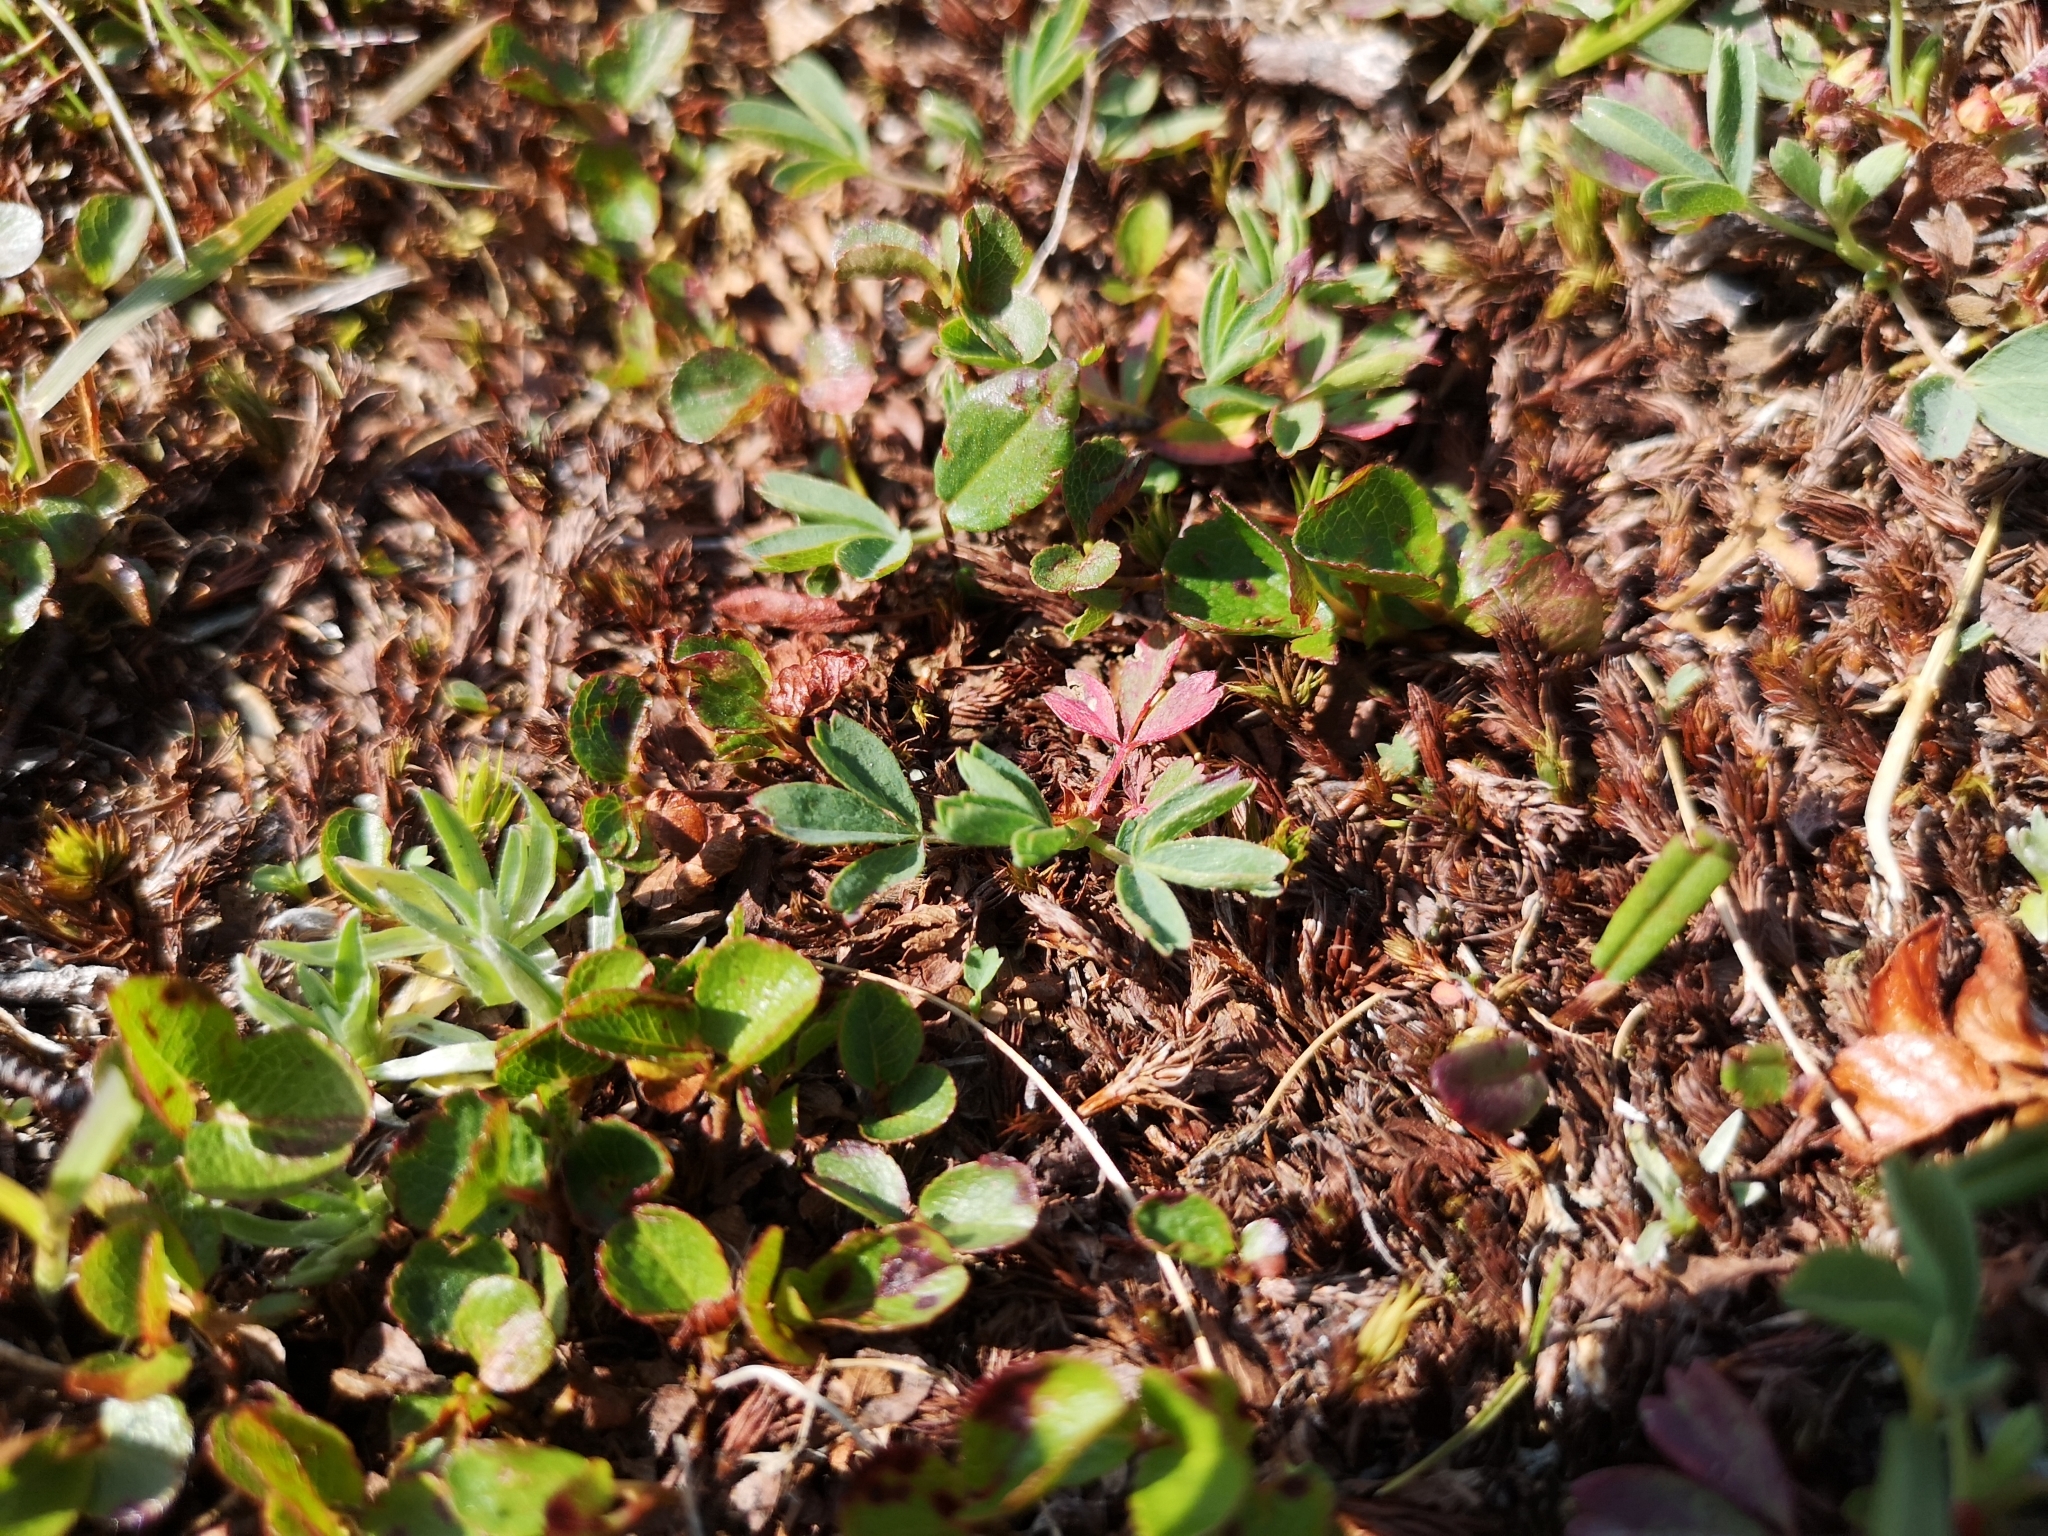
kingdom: Plantae
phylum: Tracheophyta
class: Magnoliopsida
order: Rosales
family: Rosaceae
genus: Sibbaldia
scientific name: Sibbaldia procumbens
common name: Creeping sibbaldia
